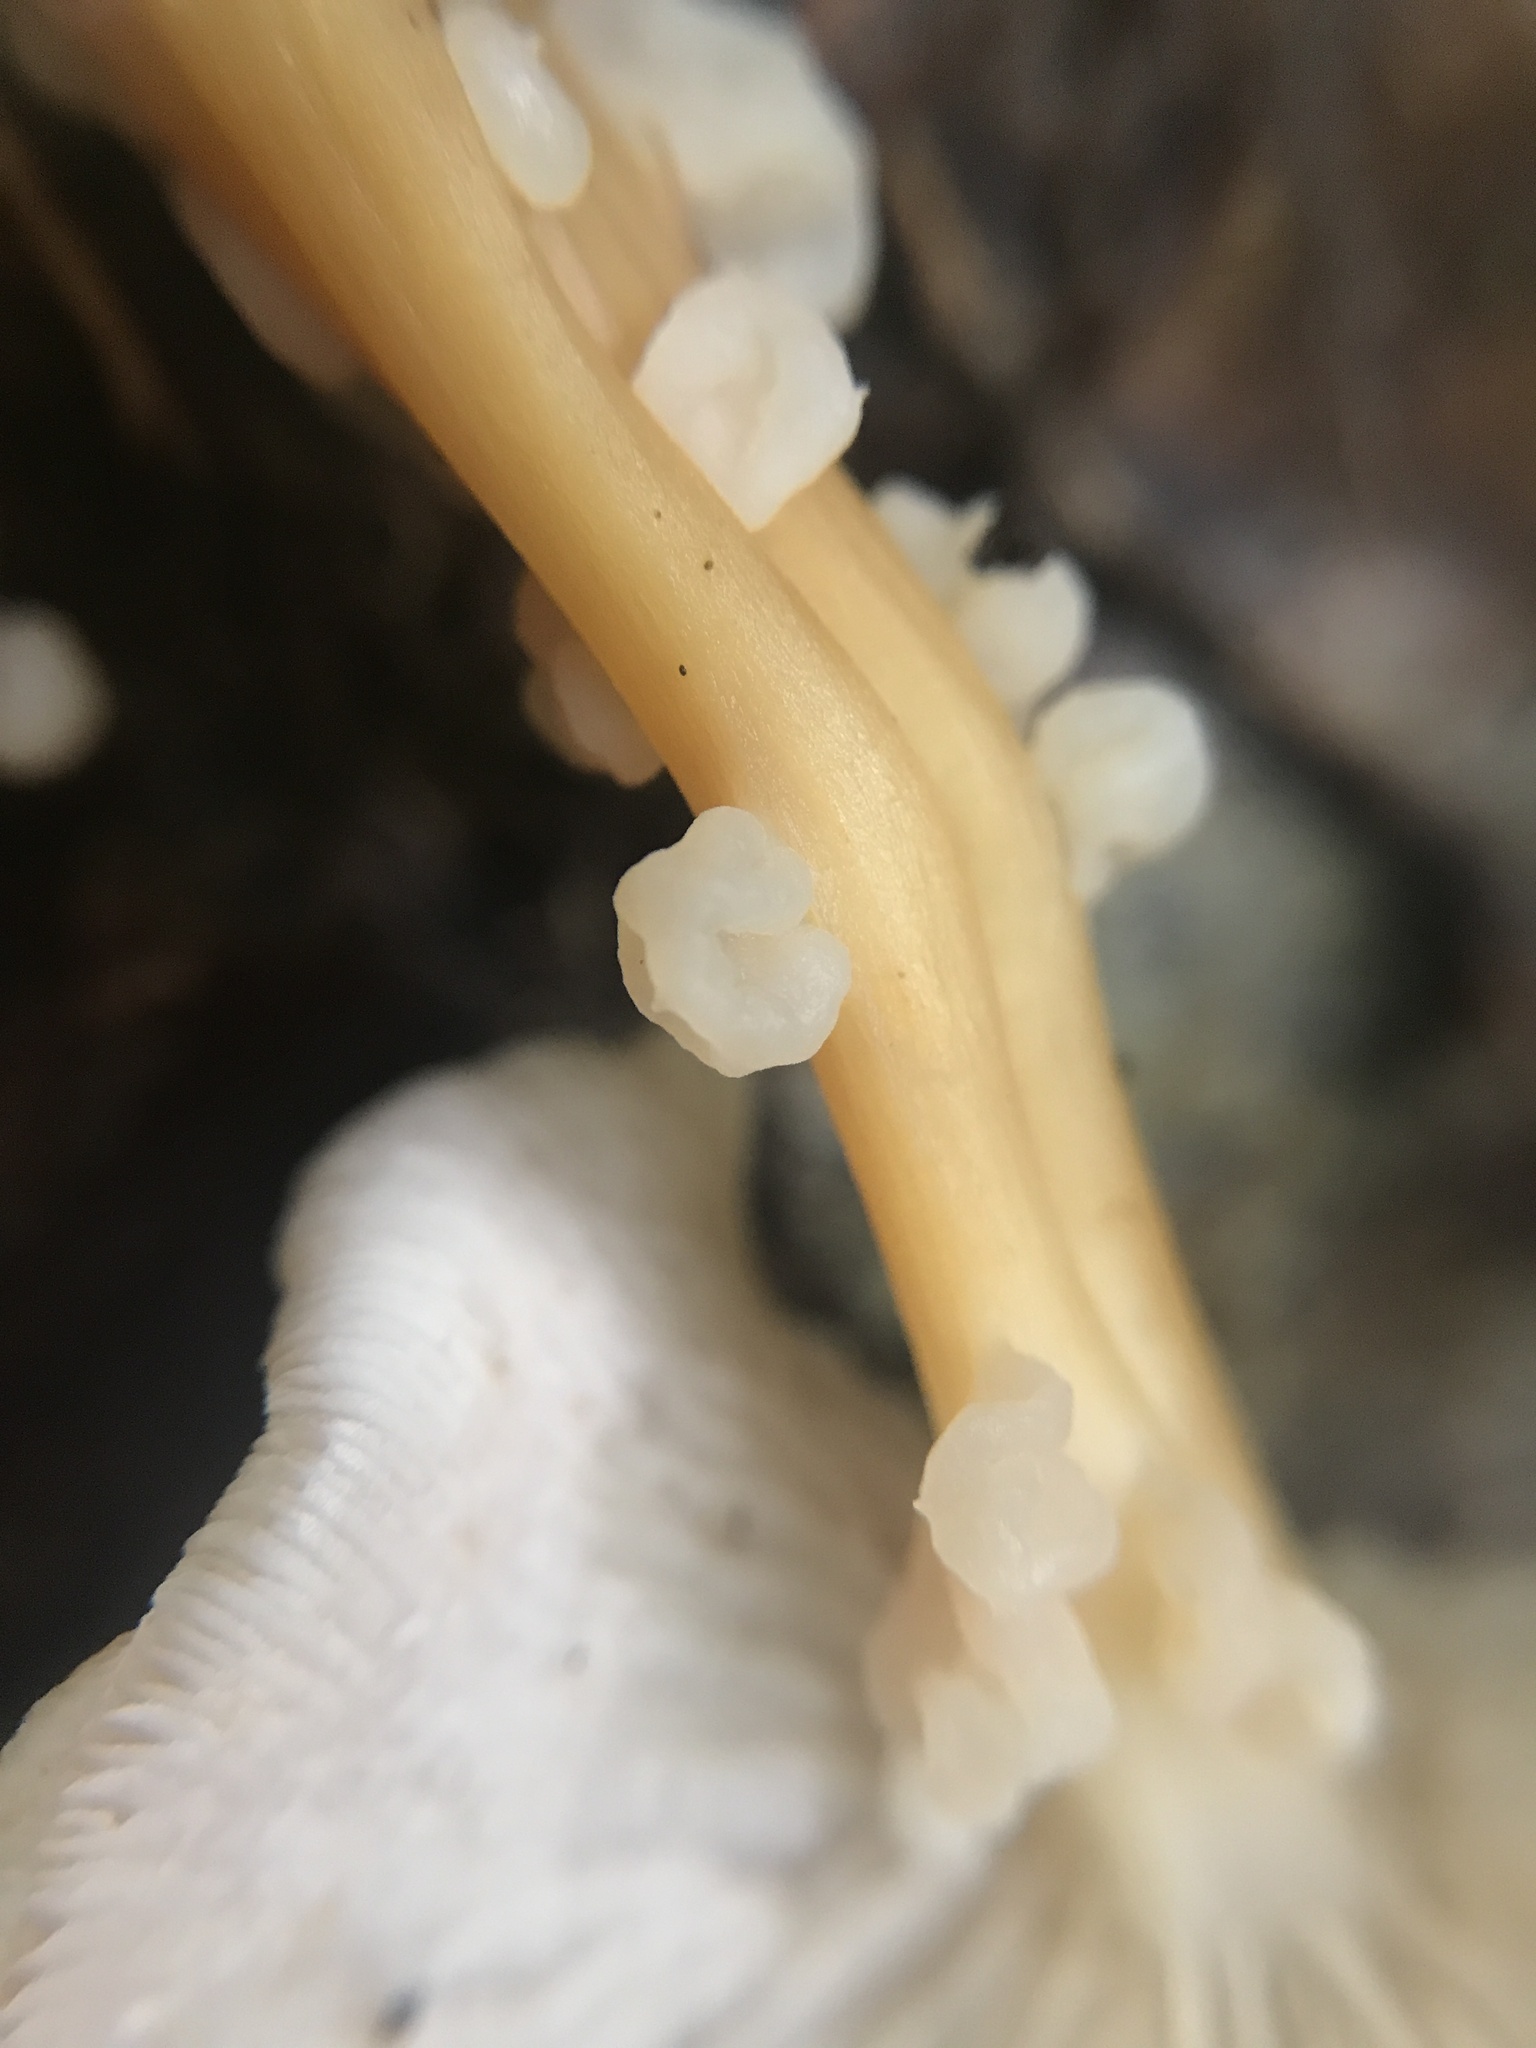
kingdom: Fungi
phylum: Basidiomycota
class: Tremellomycetes
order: Filobasidiales
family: Filobasidiaceae
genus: Syzygospora
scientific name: Syzygospora mycetophila
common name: Collybia clouds
